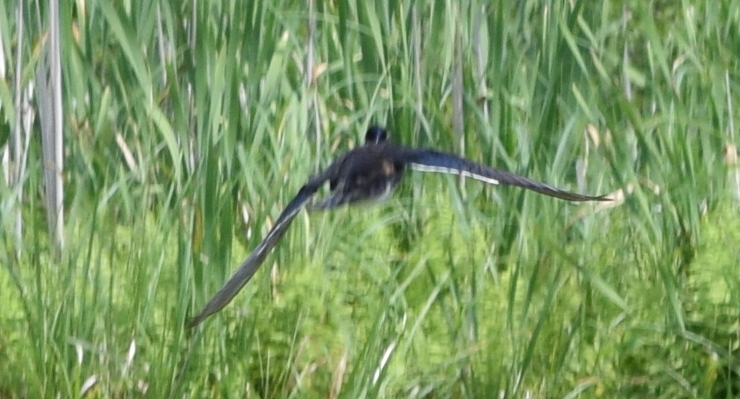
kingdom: Animalia
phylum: Chordata
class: Aves
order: Anseriformes
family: Anatidae
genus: Aix
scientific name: Aix sponsa
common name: Wood duck
